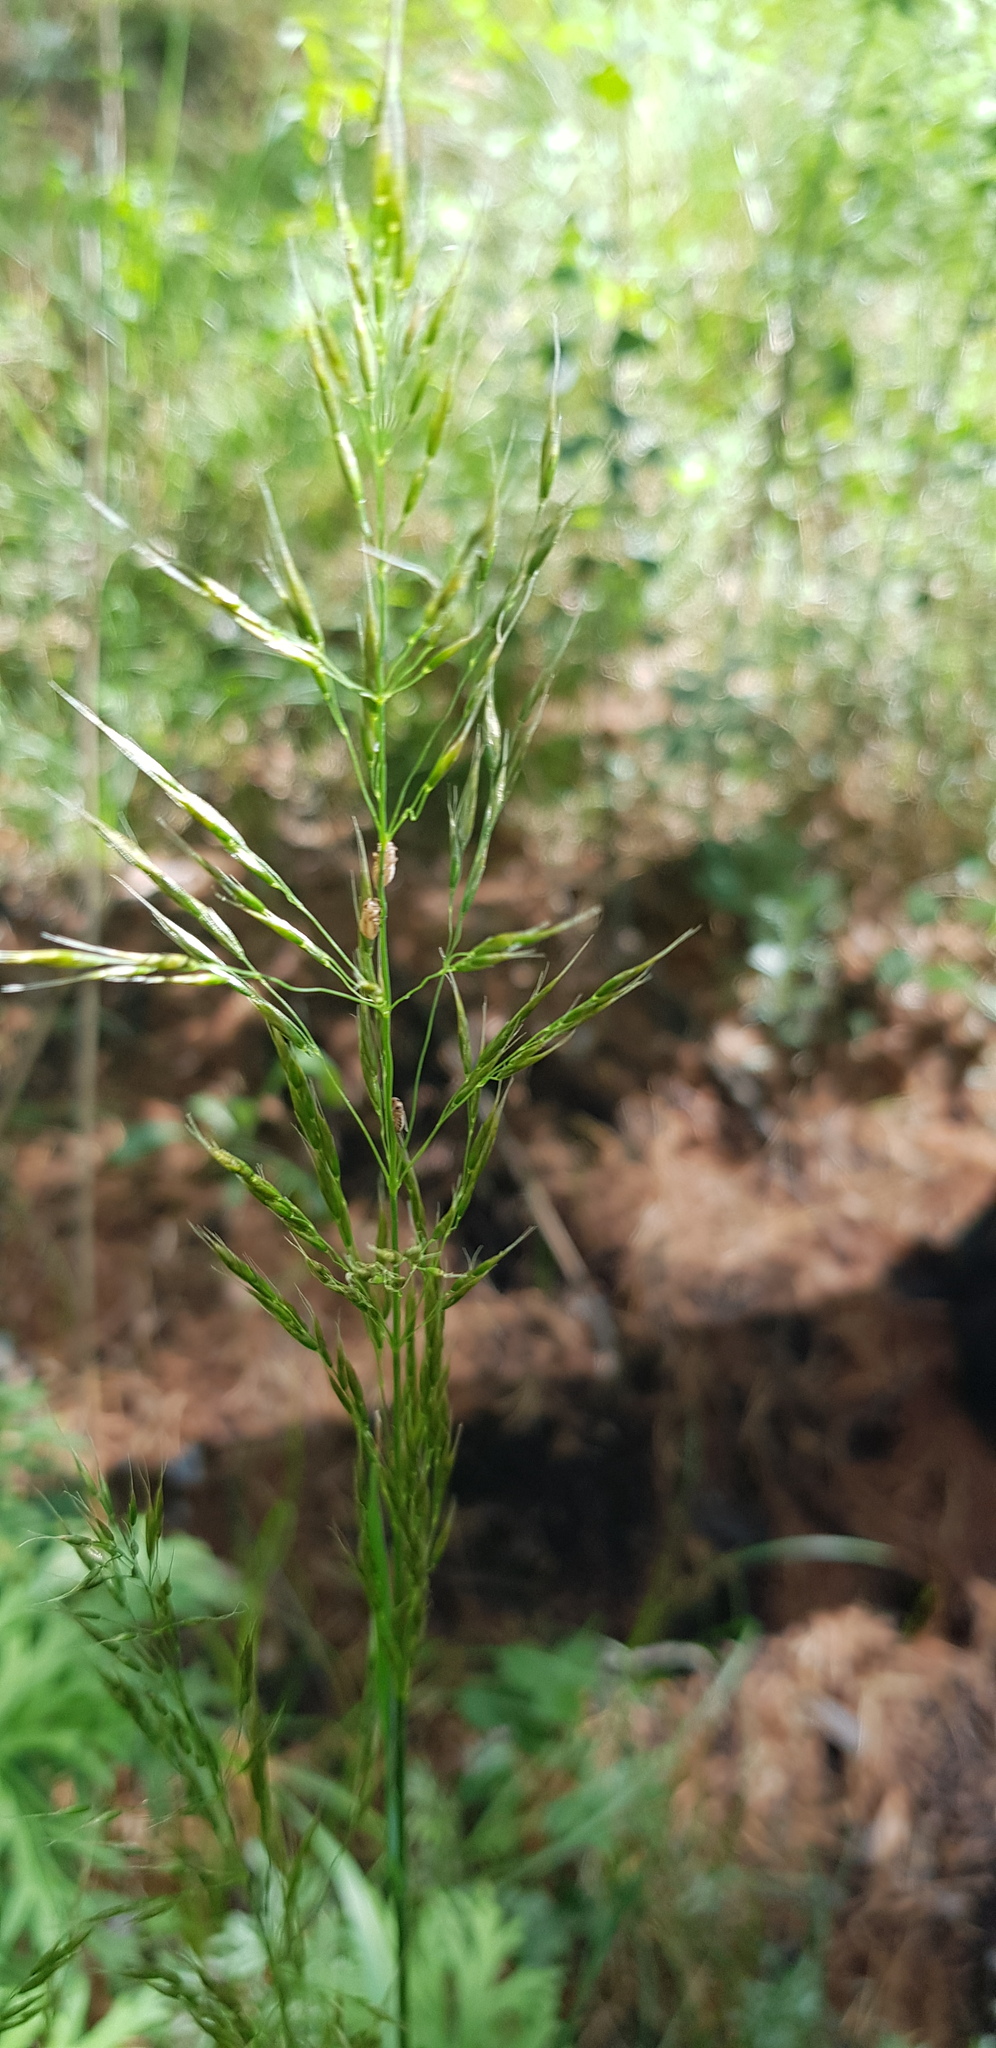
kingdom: Plantae
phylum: Tracheophyta
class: Liliopsida
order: Poales
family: Poaceae
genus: Agrostis
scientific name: Agrostis gigantea
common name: Black bent
